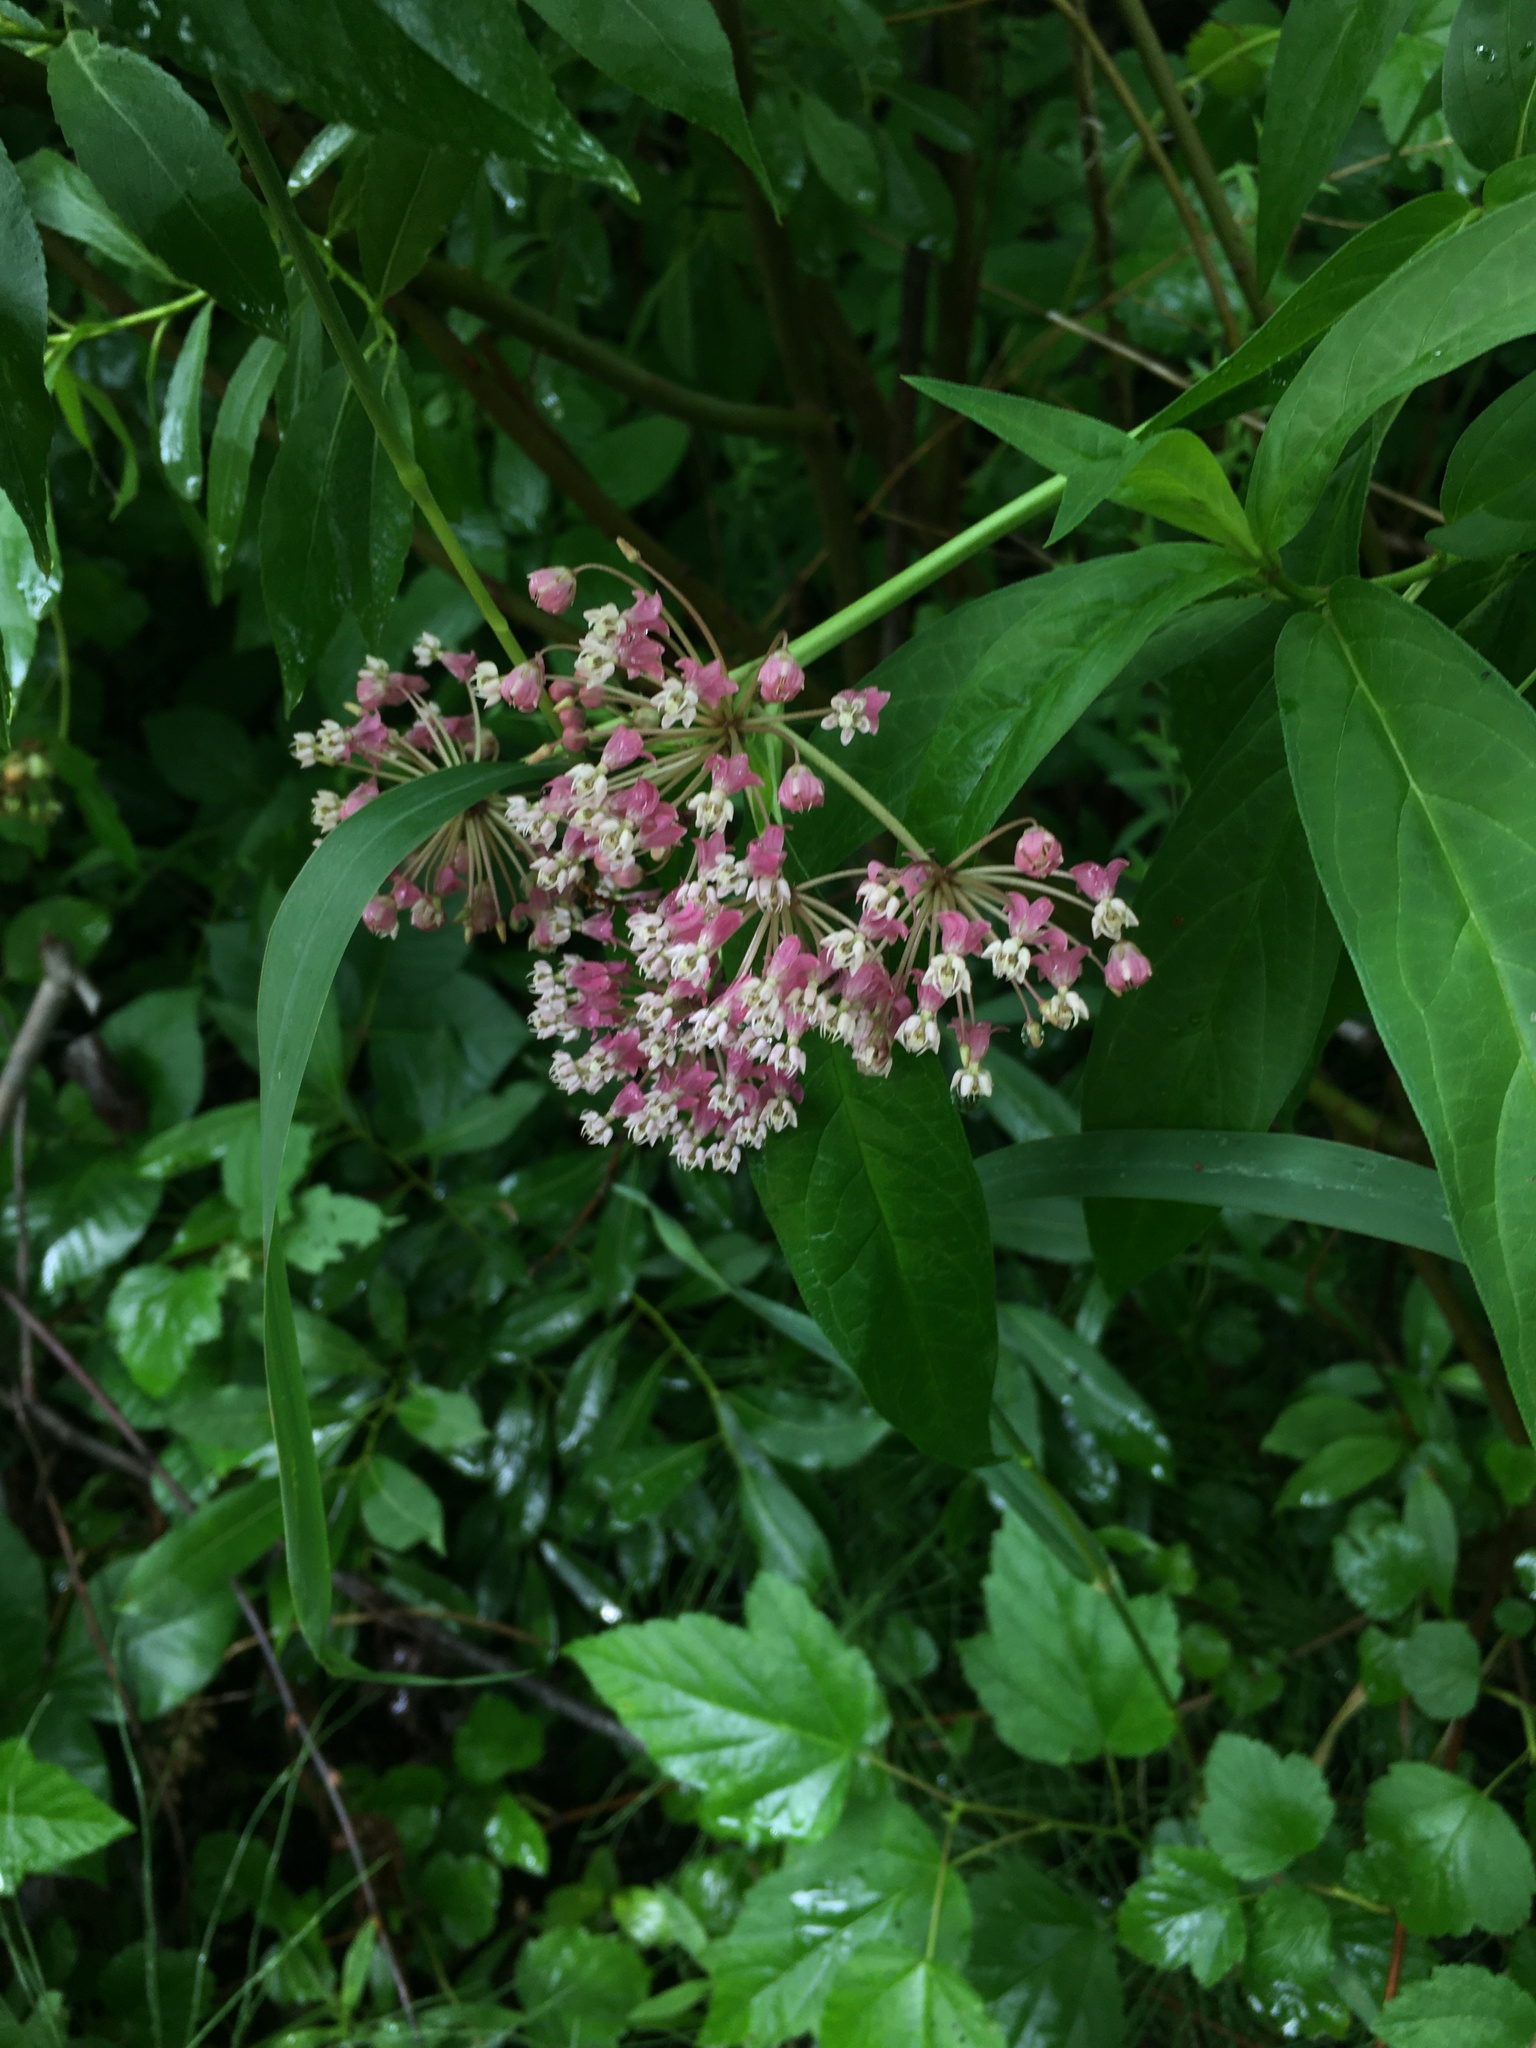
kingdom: Plantae
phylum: Tracheophyta
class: Magnoliopsida
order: Gentianales
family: Apocynaceae
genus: Asclepias
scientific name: Asclepias incarnata
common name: Swamp milkweed
